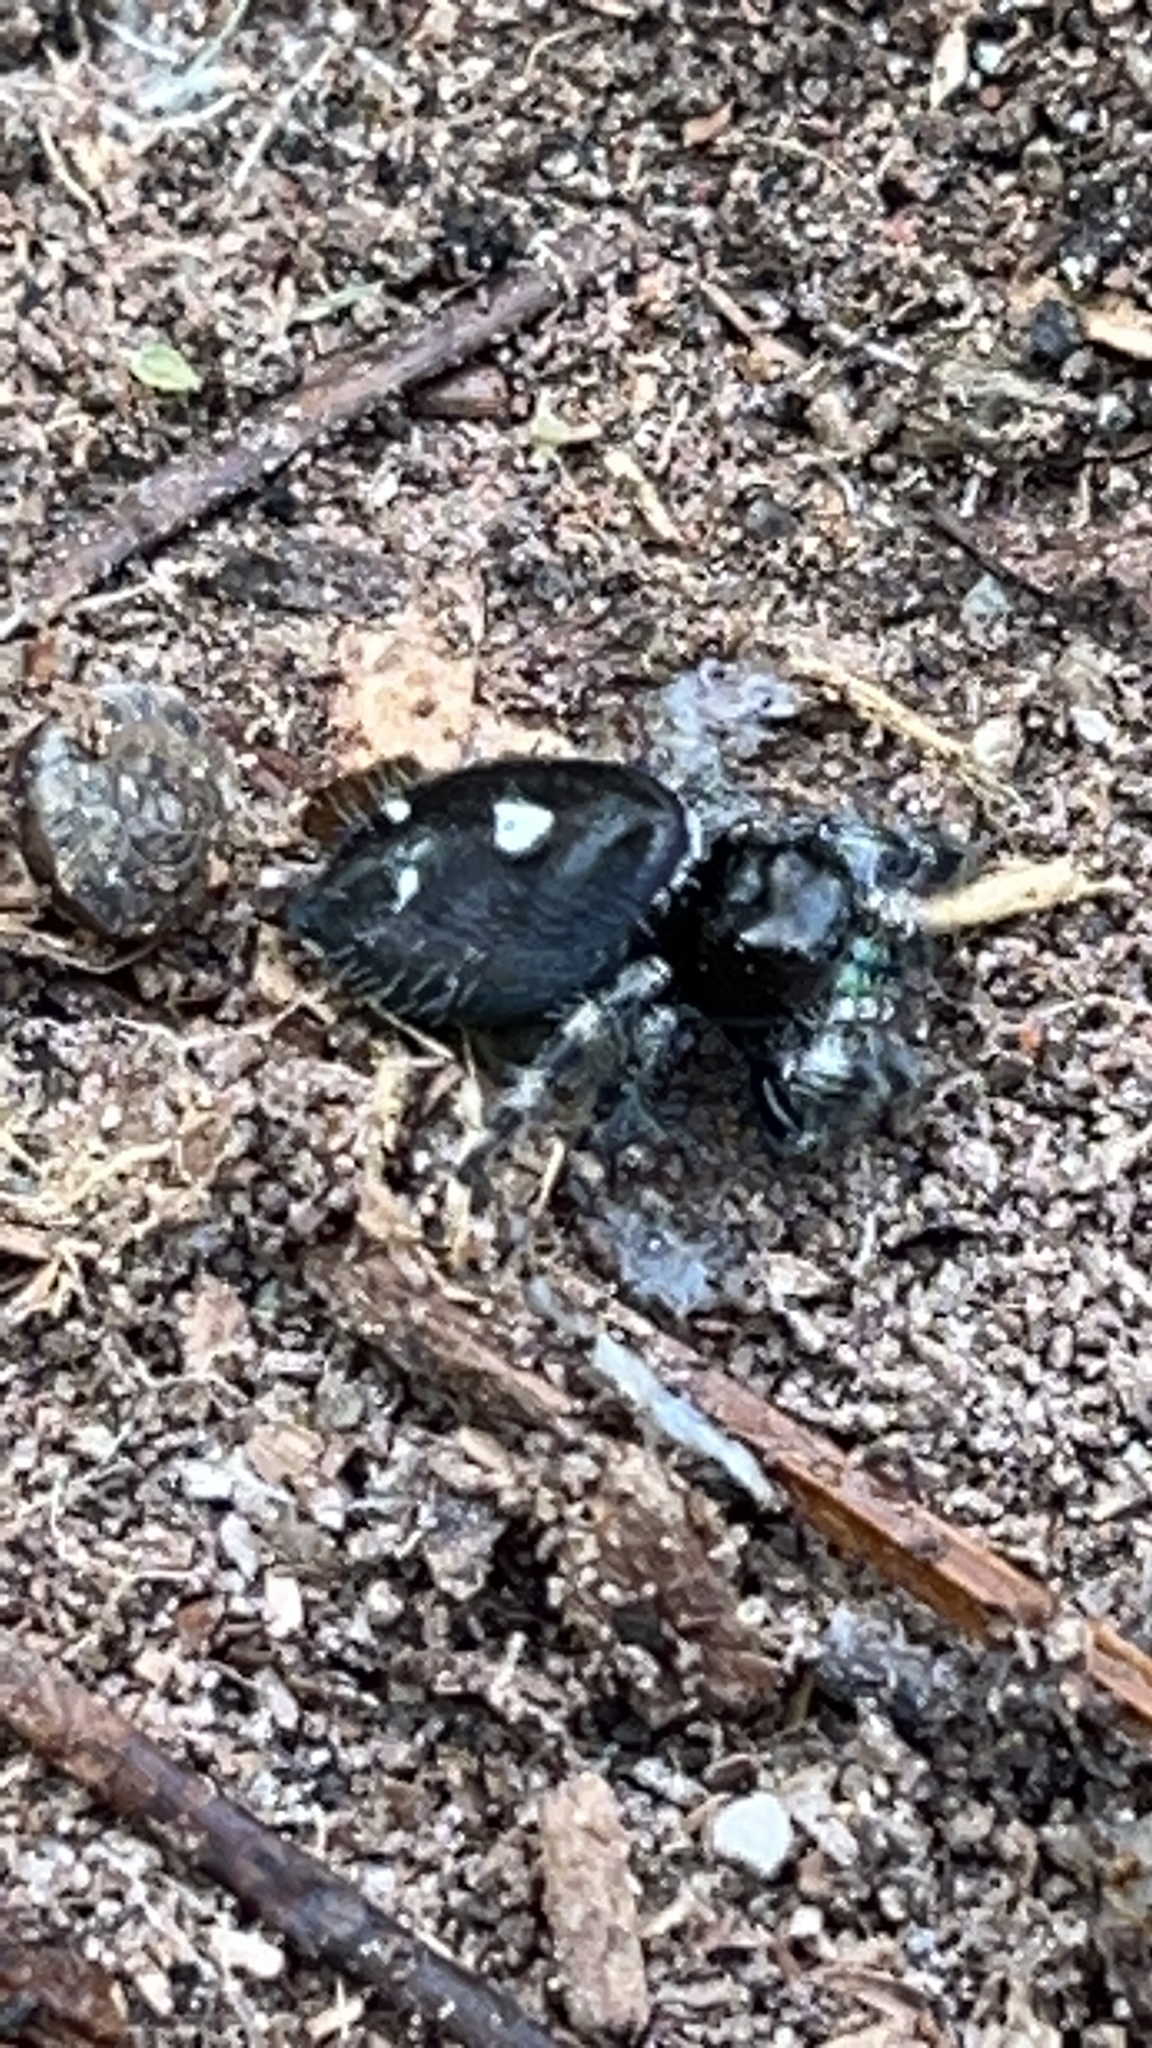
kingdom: Animalia
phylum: Arthropoda
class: Arachnida
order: Araneae
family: Salticidae
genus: Phidippus
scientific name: Phidippus audax
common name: Bold jumper
